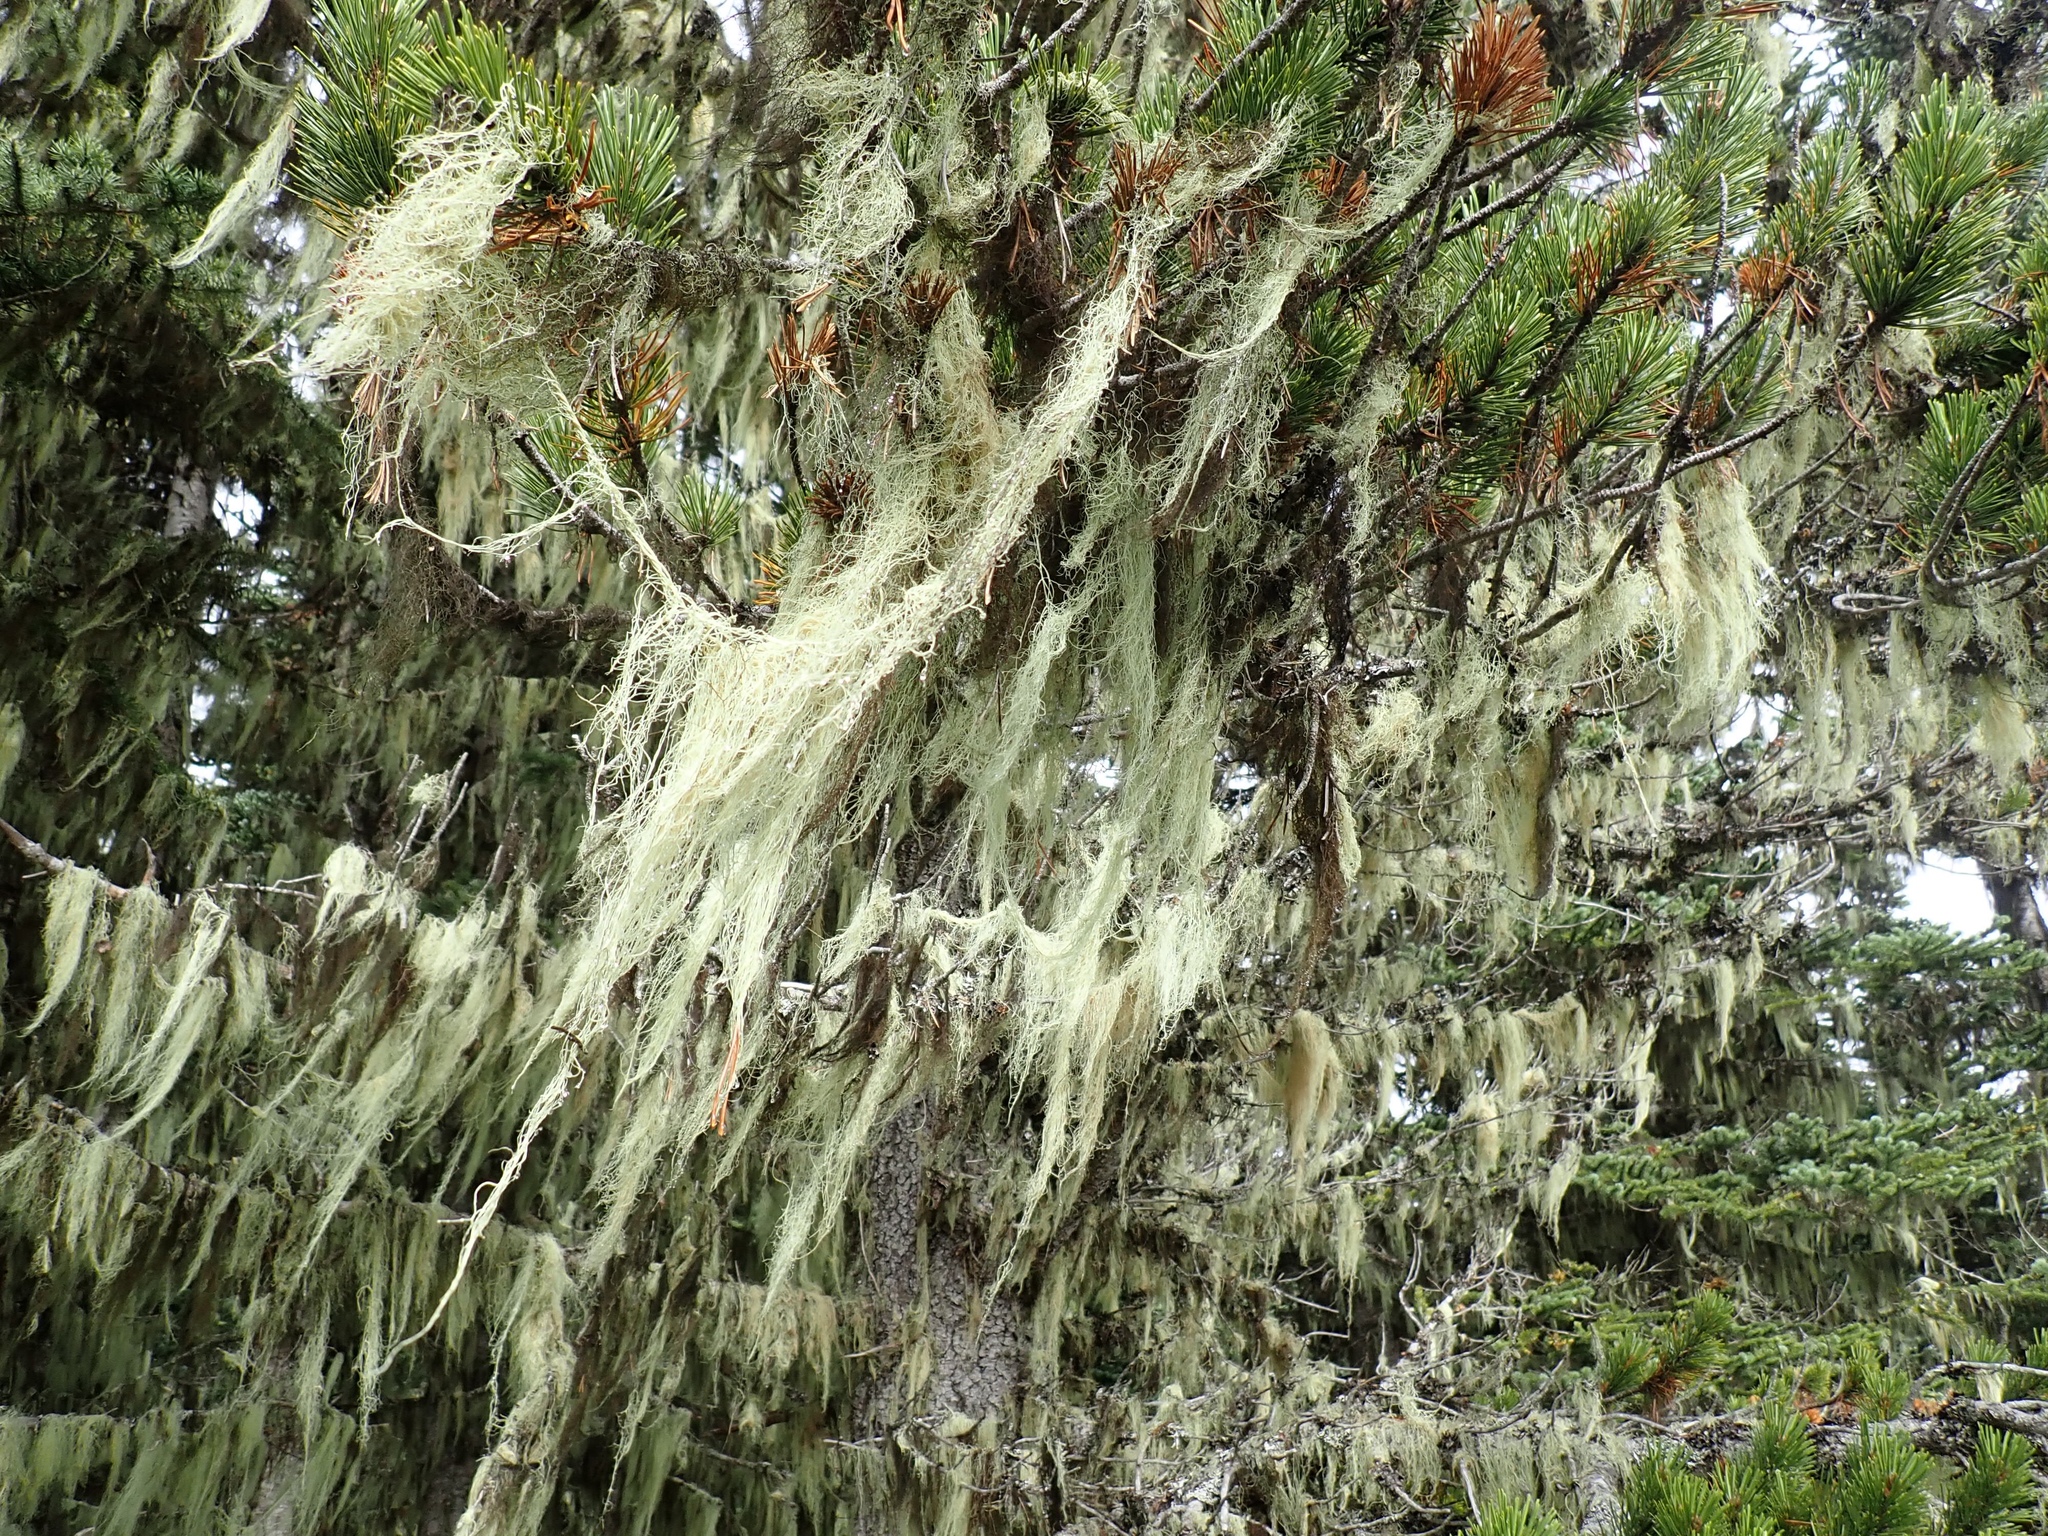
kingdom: Plantae
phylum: Tracheophyta
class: Pinopsida
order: Pinales
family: Pinaceae
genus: Pinus
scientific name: Pinus contorta
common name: Lodgepole pine
